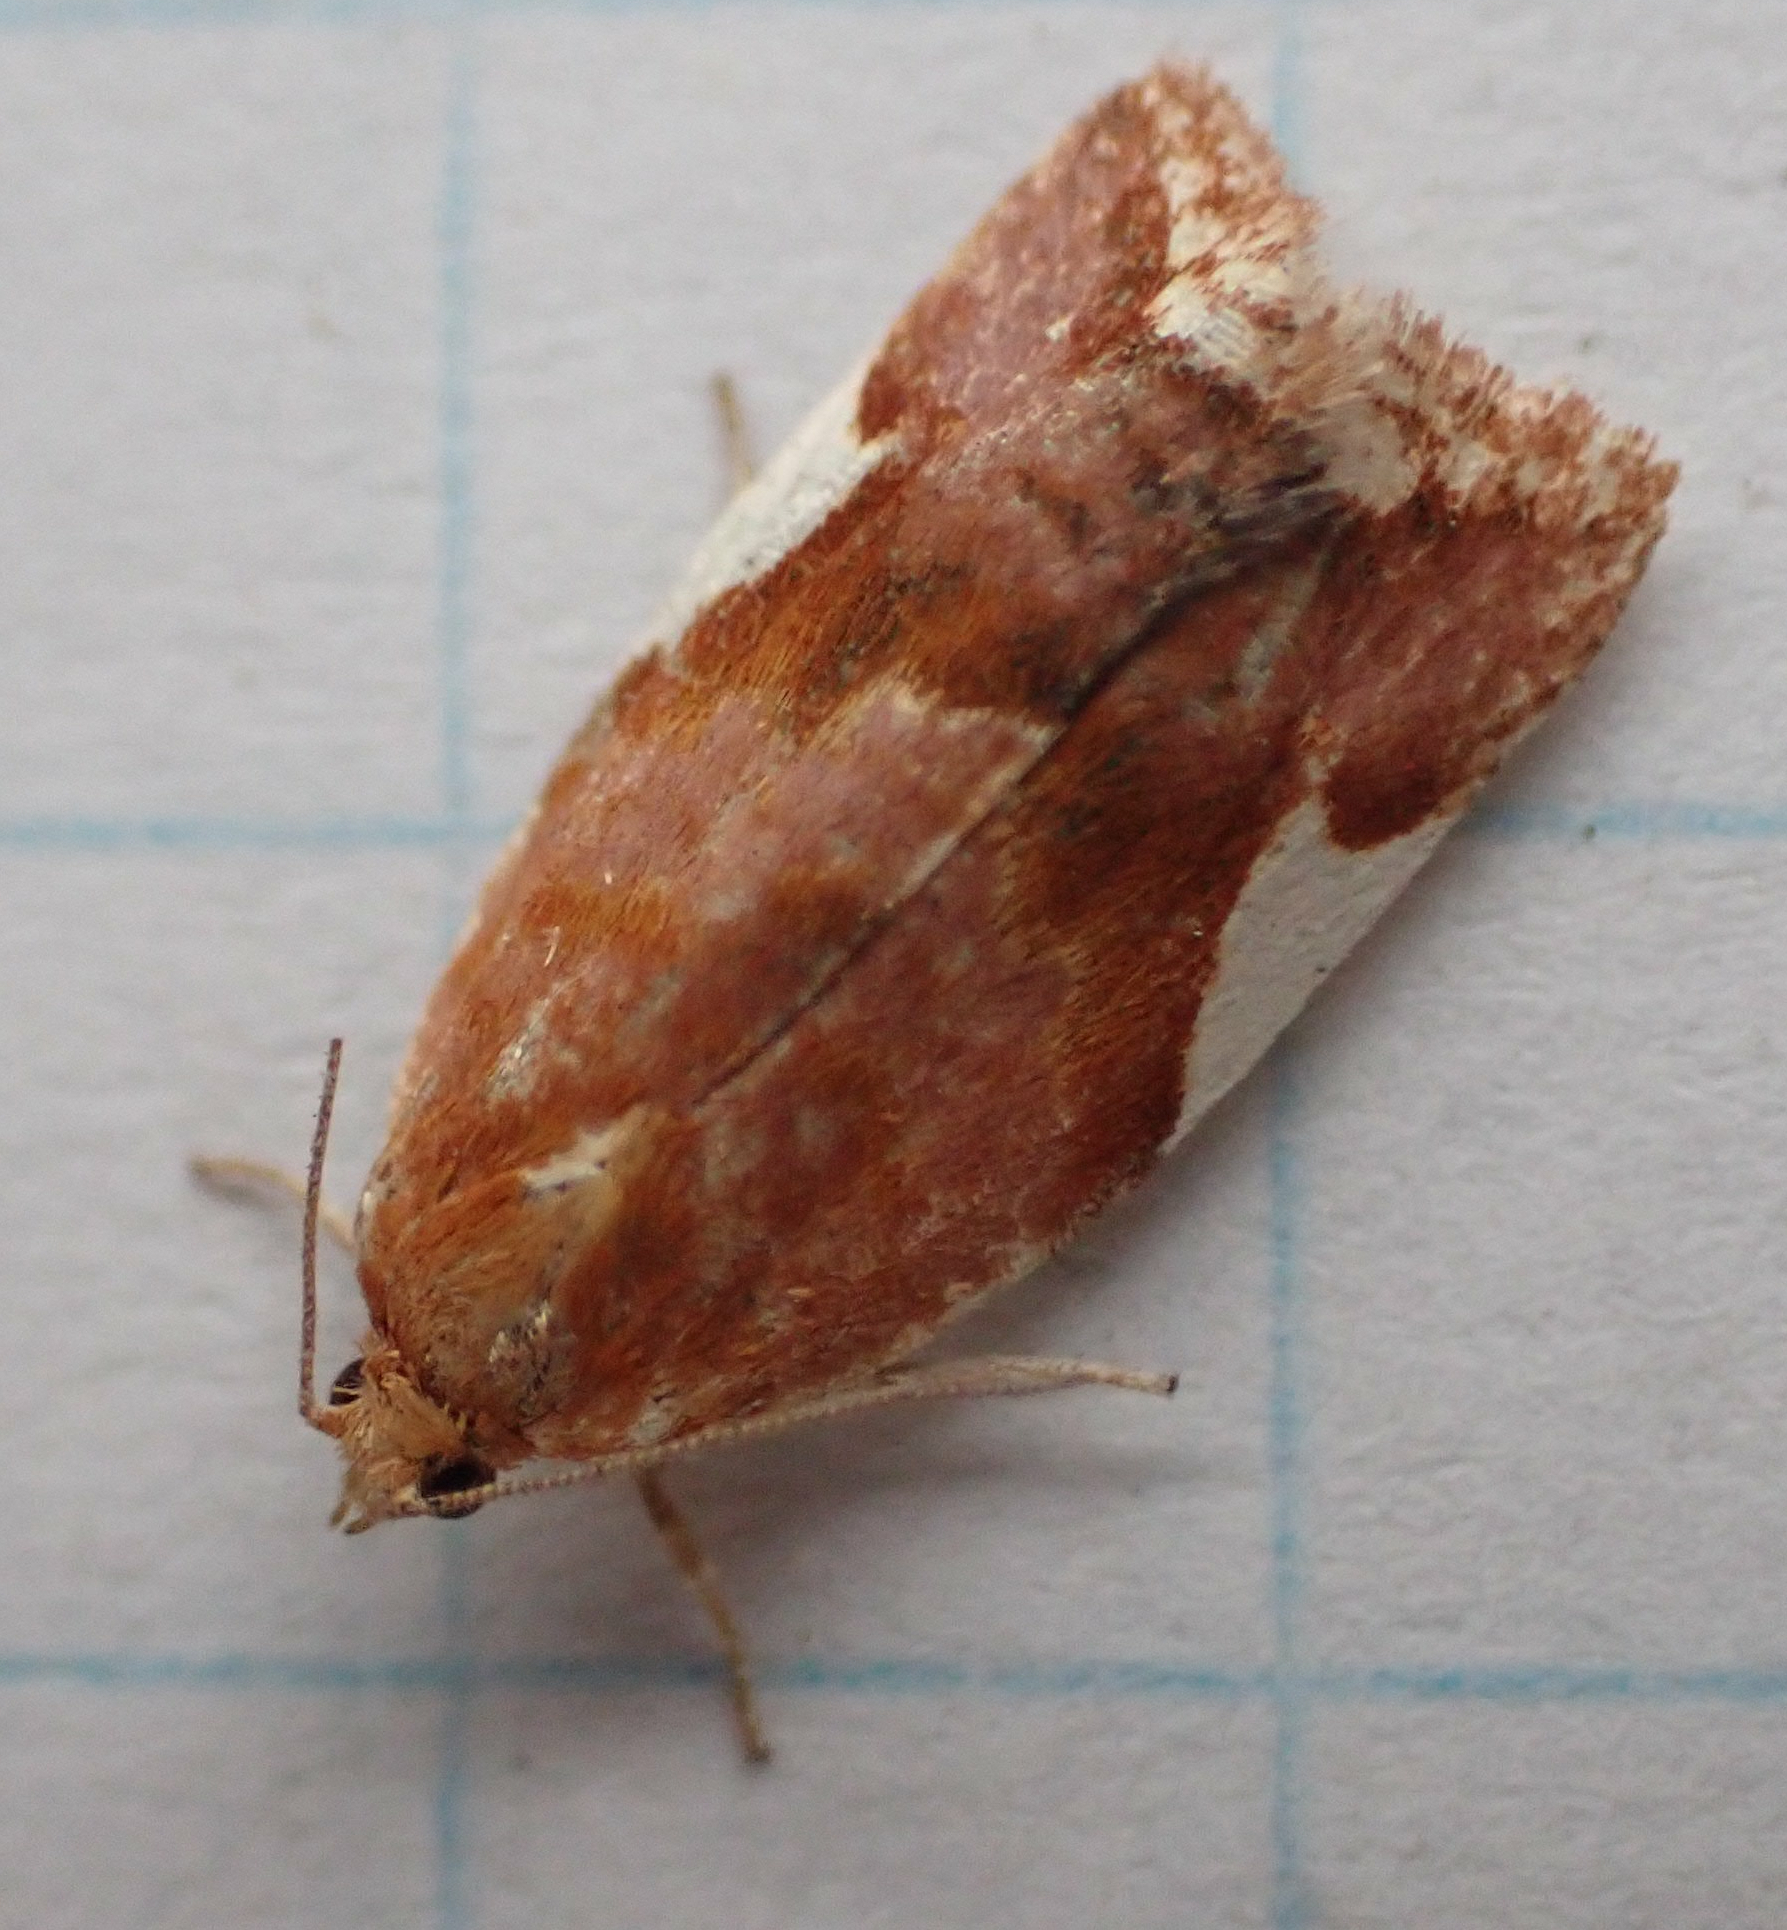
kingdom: Animalia
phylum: Arthropoda
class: Insecta
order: Lepidoptera
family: Tortricidae
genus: Clepsis
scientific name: Clepsis persicana
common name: White triangle tortrix
